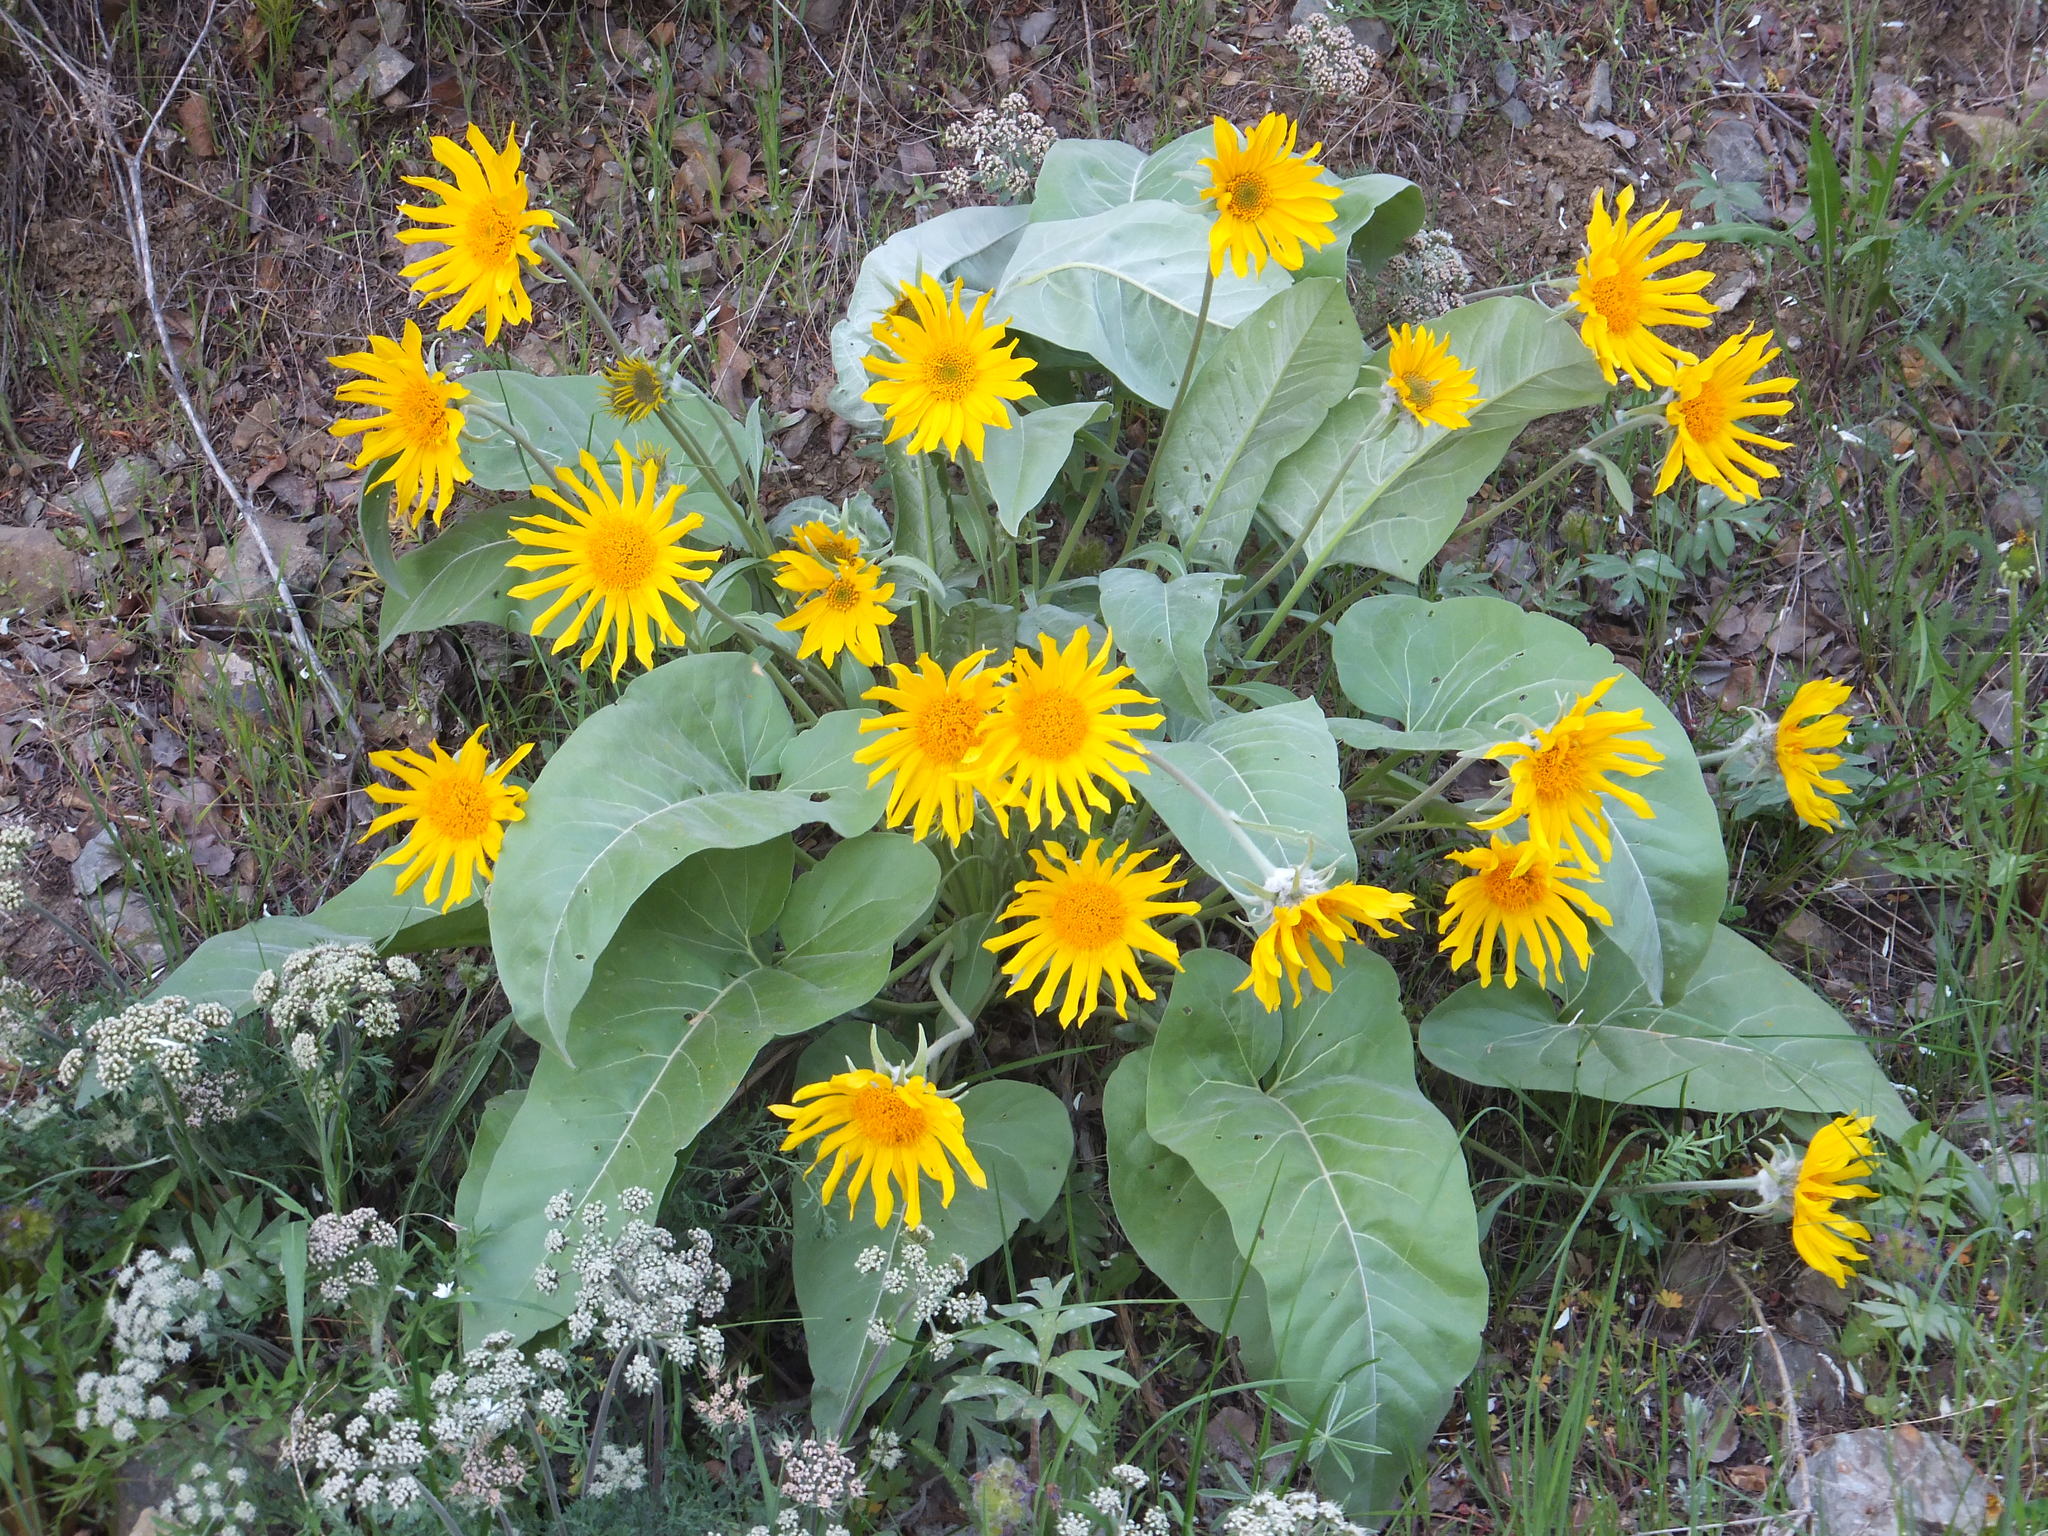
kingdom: Plantae
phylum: Tracheophyta
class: Magnoliopsida
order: Asterales
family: Asteraceae
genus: Wyethia
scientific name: Wyethia sagittata
